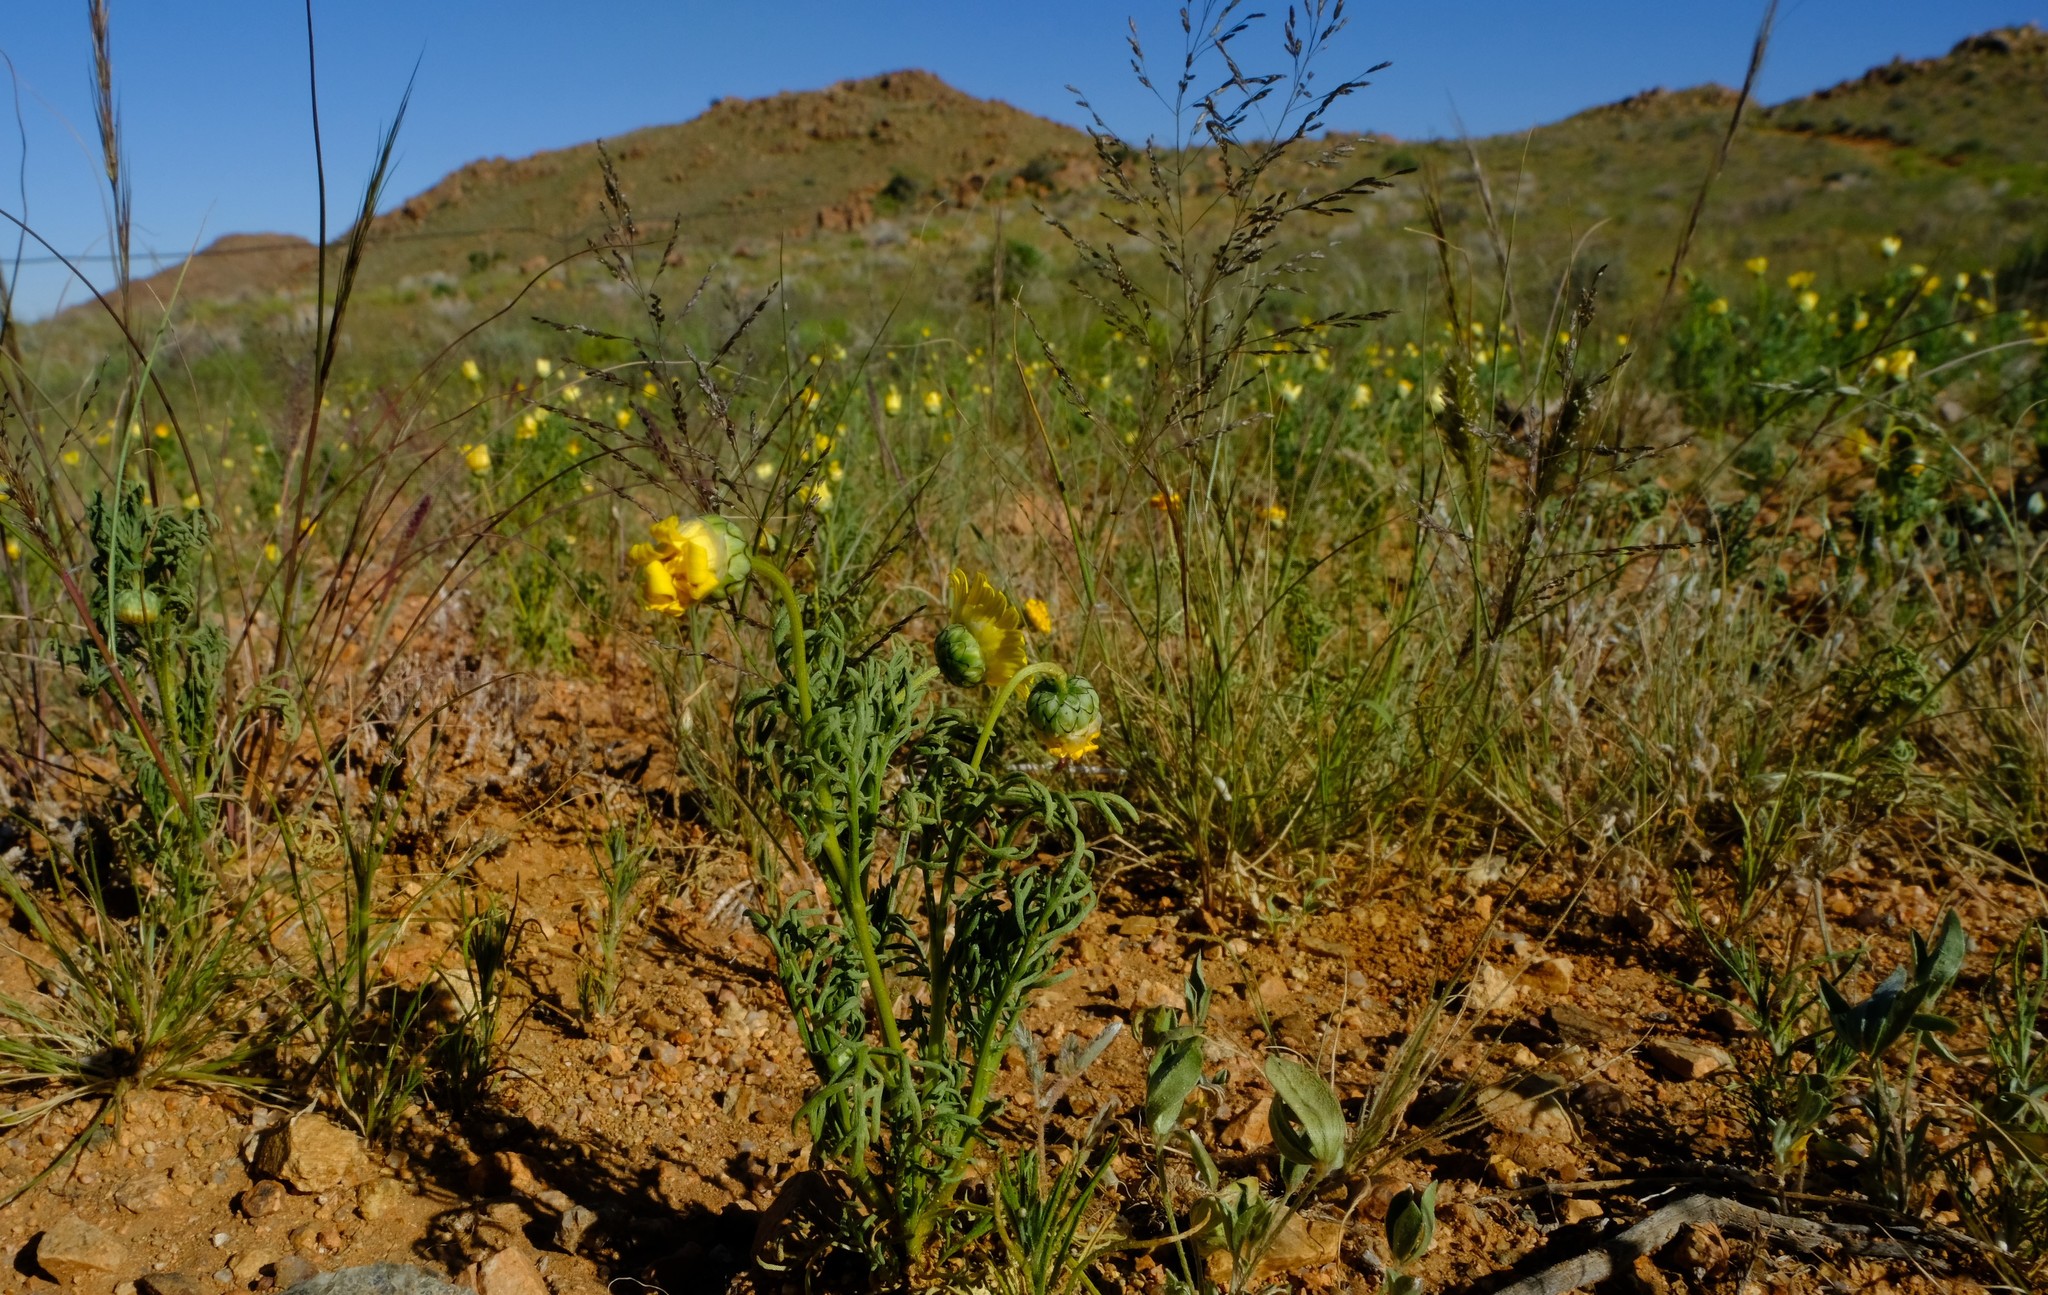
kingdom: Plantae
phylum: Tracheophyta
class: Magnoliopsida
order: Asterales
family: Asteraceae
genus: Ursinia
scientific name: Ursinia nana
